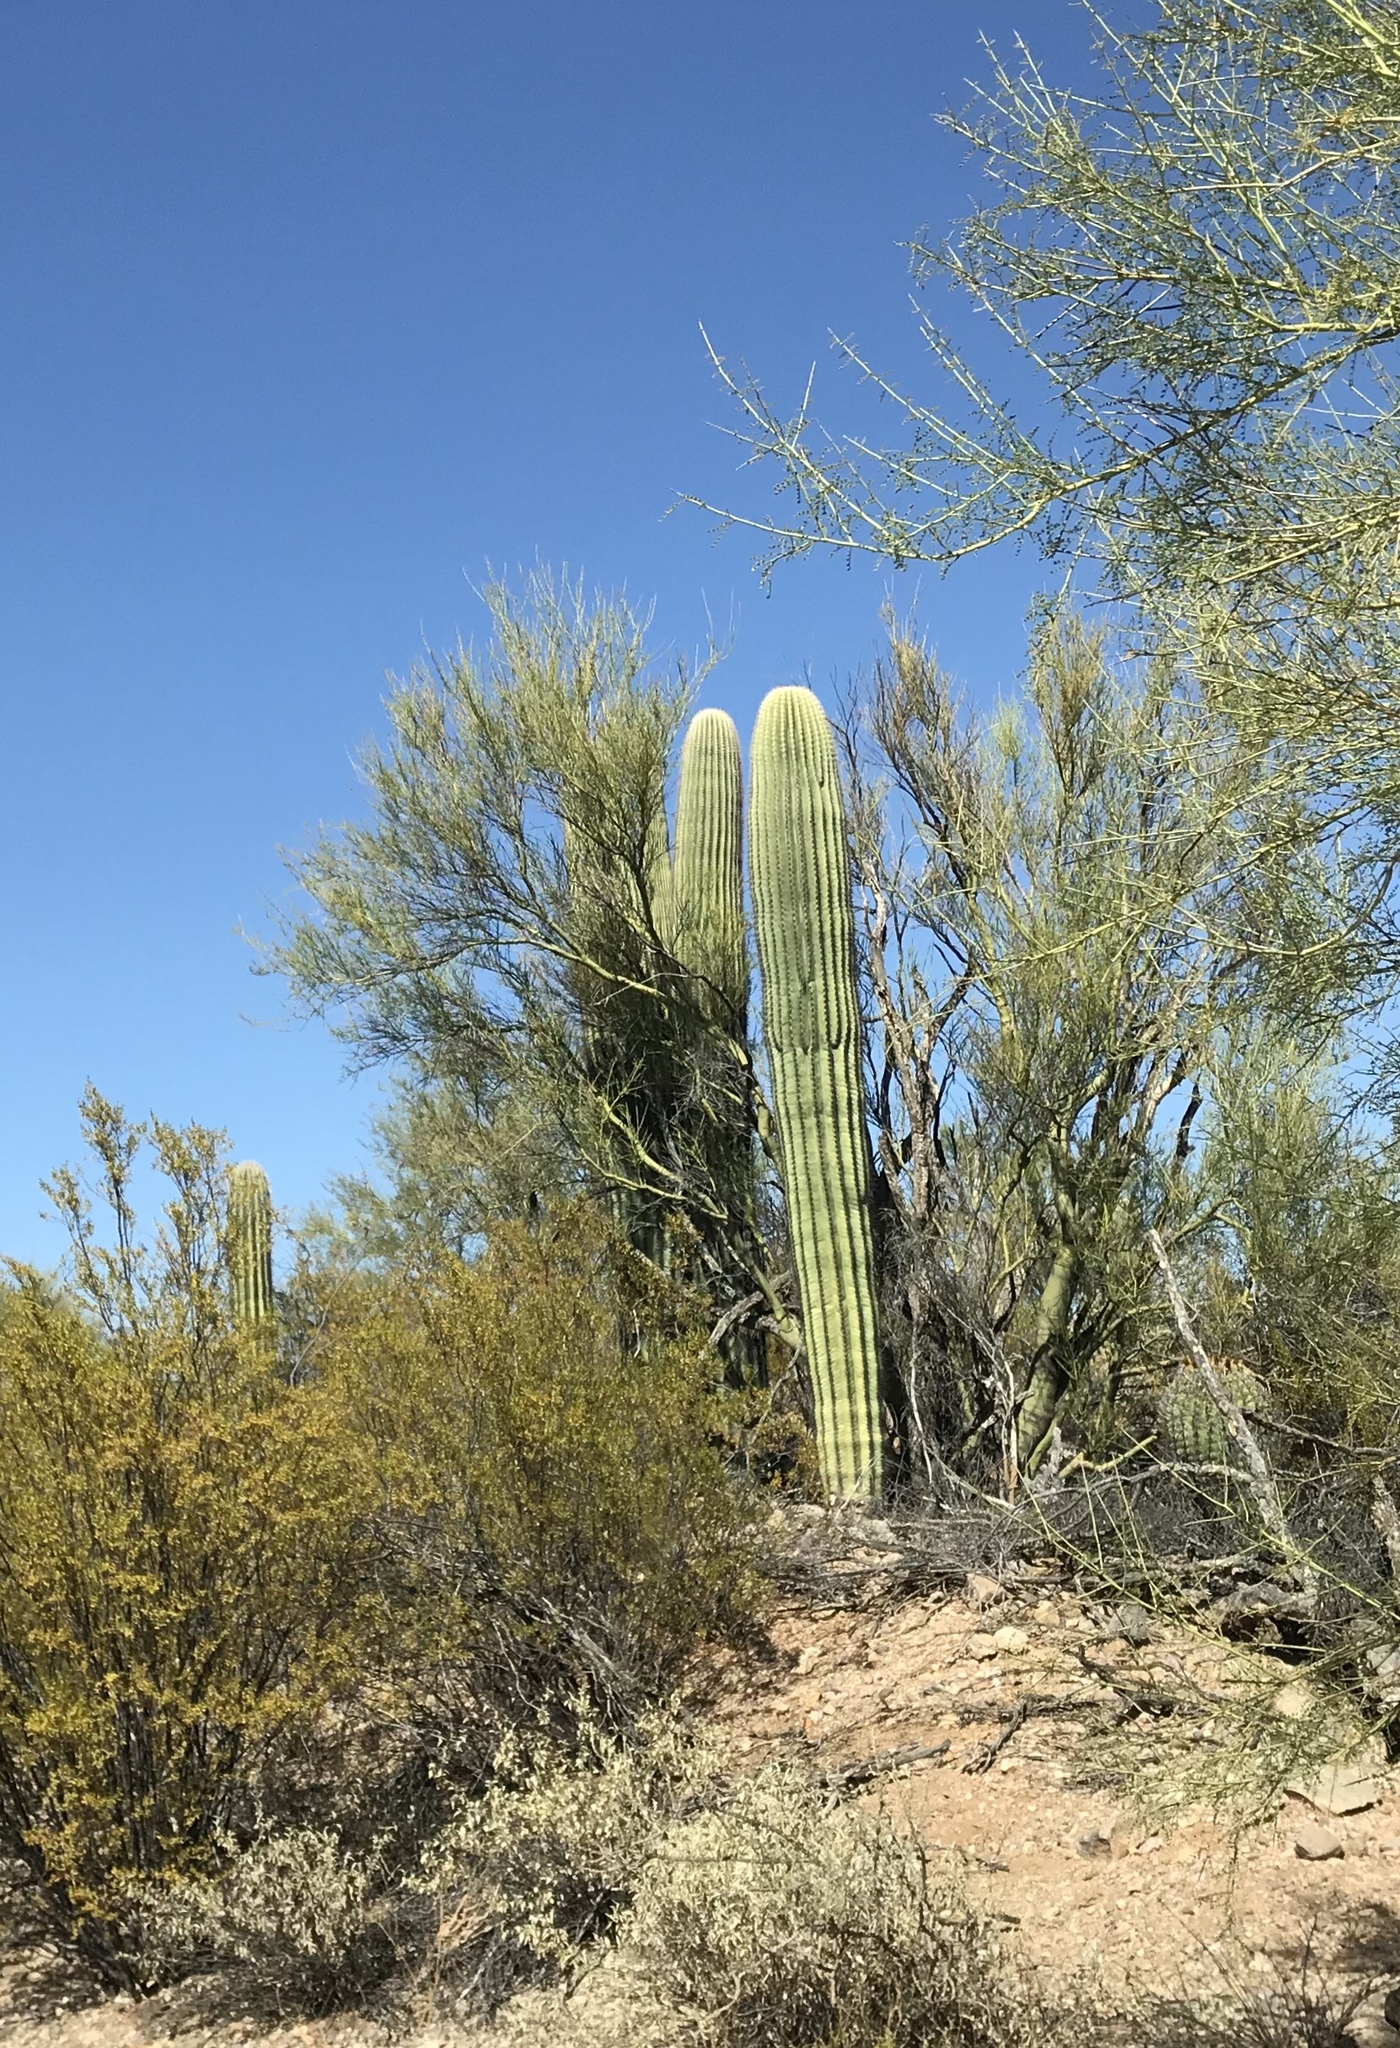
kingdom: Plantae
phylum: Tracheophyta
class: Magnoliopsida
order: Caryophyllales
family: Cactaceae
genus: Carnegiea
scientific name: Carnegiea gigantea
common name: Saguaro
